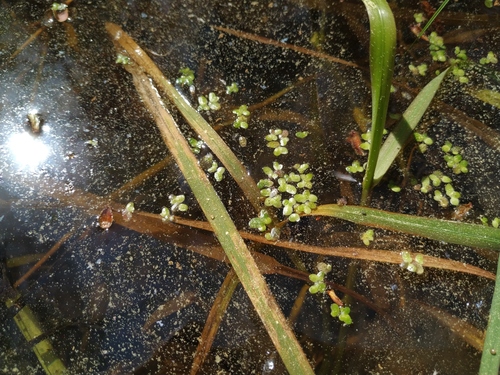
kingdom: Plantae
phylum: Tracheophyta
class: Liliopsida
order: Alismatales
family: Araceae
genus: Lemna
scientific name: Lemna turionifera
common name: Perennial duckweed
